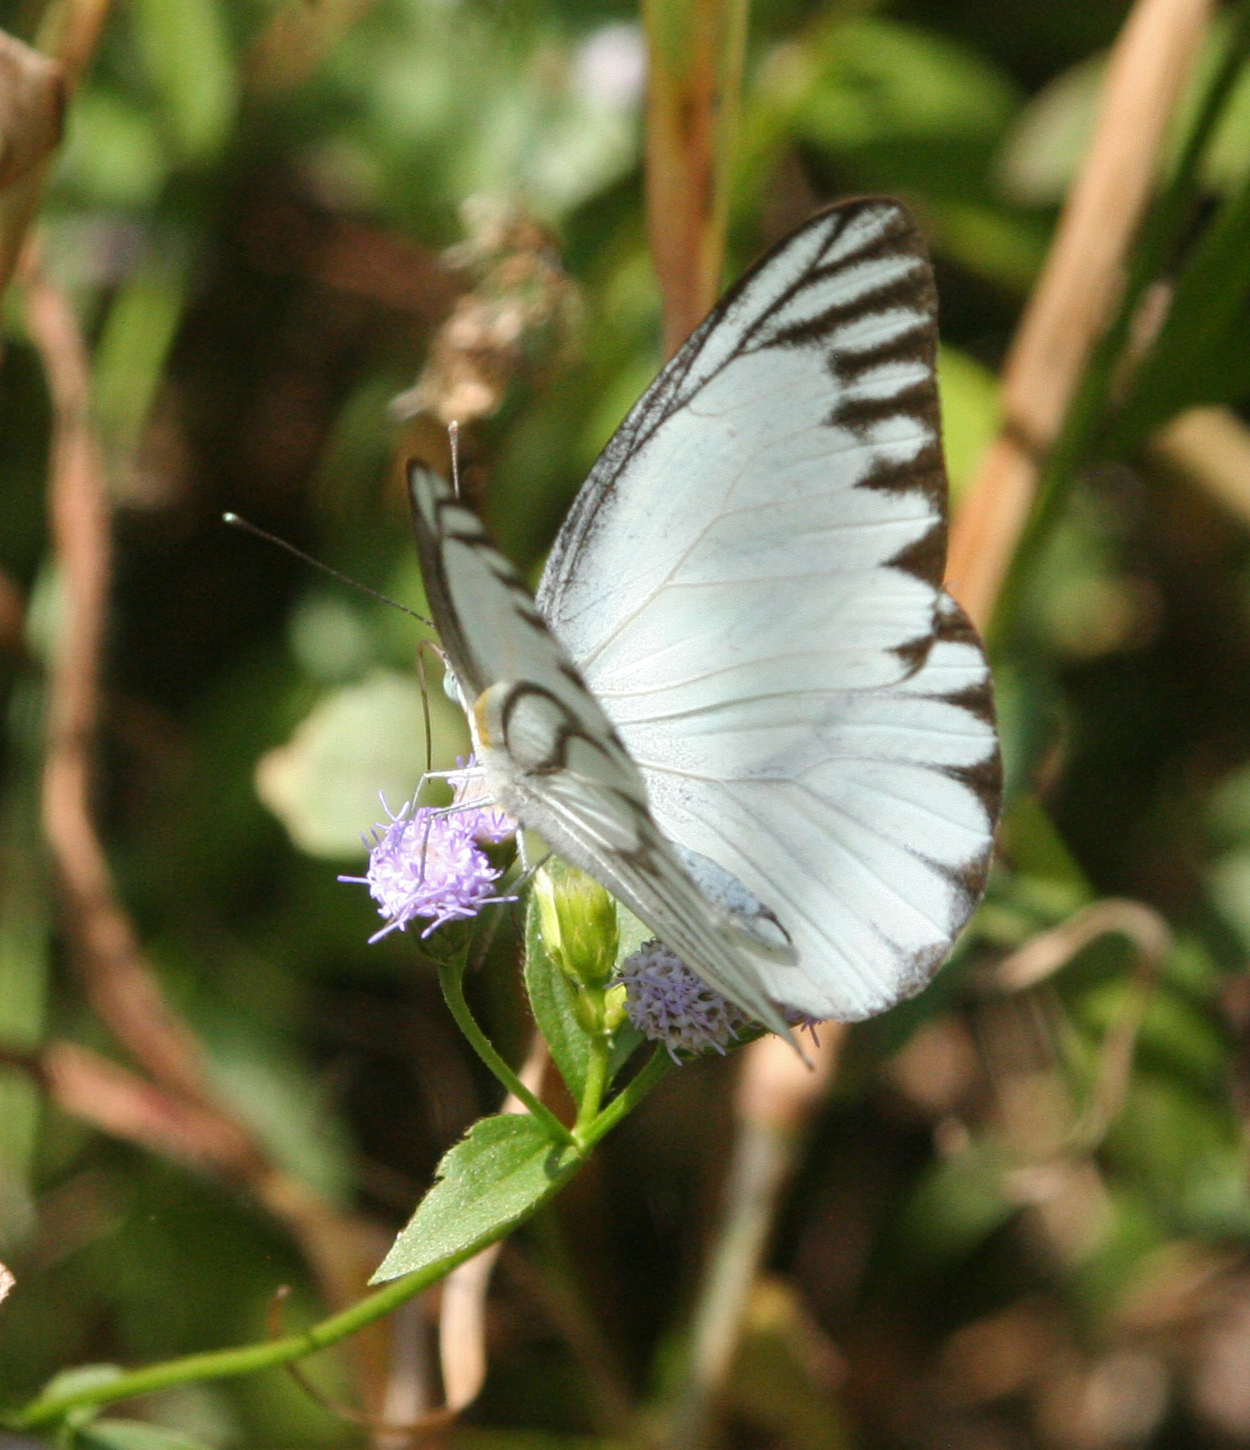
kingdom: Animalia
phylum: Arthropoda
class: Insecta
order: Lepidoptera
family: Pieridae
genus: Appias
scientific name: Appias libythea
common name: Striped albatross
